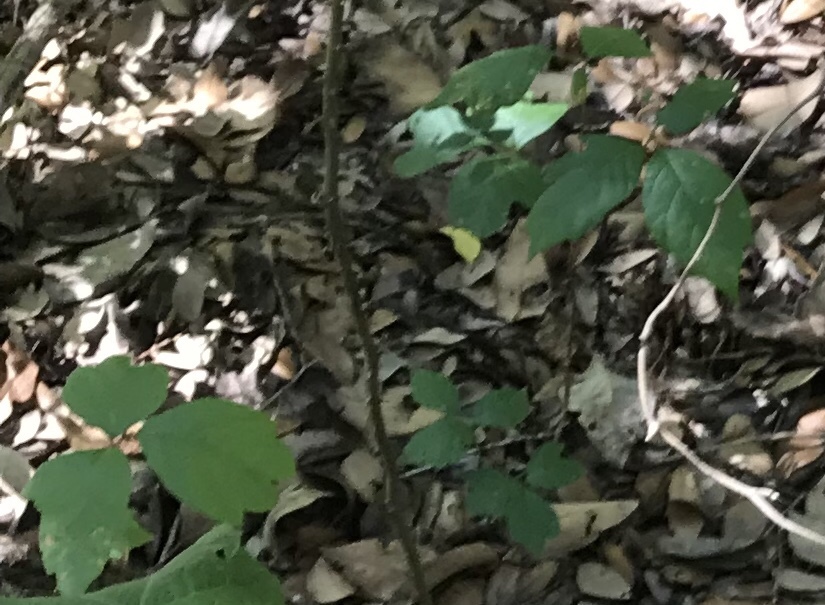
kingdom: Plantae
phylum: Tracheophyta
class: Magnoliopsida
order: Sapindales
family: Anacardiaceae
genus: Toxicodendron
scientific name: Toxicodendron radicans
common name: Poison ivy
